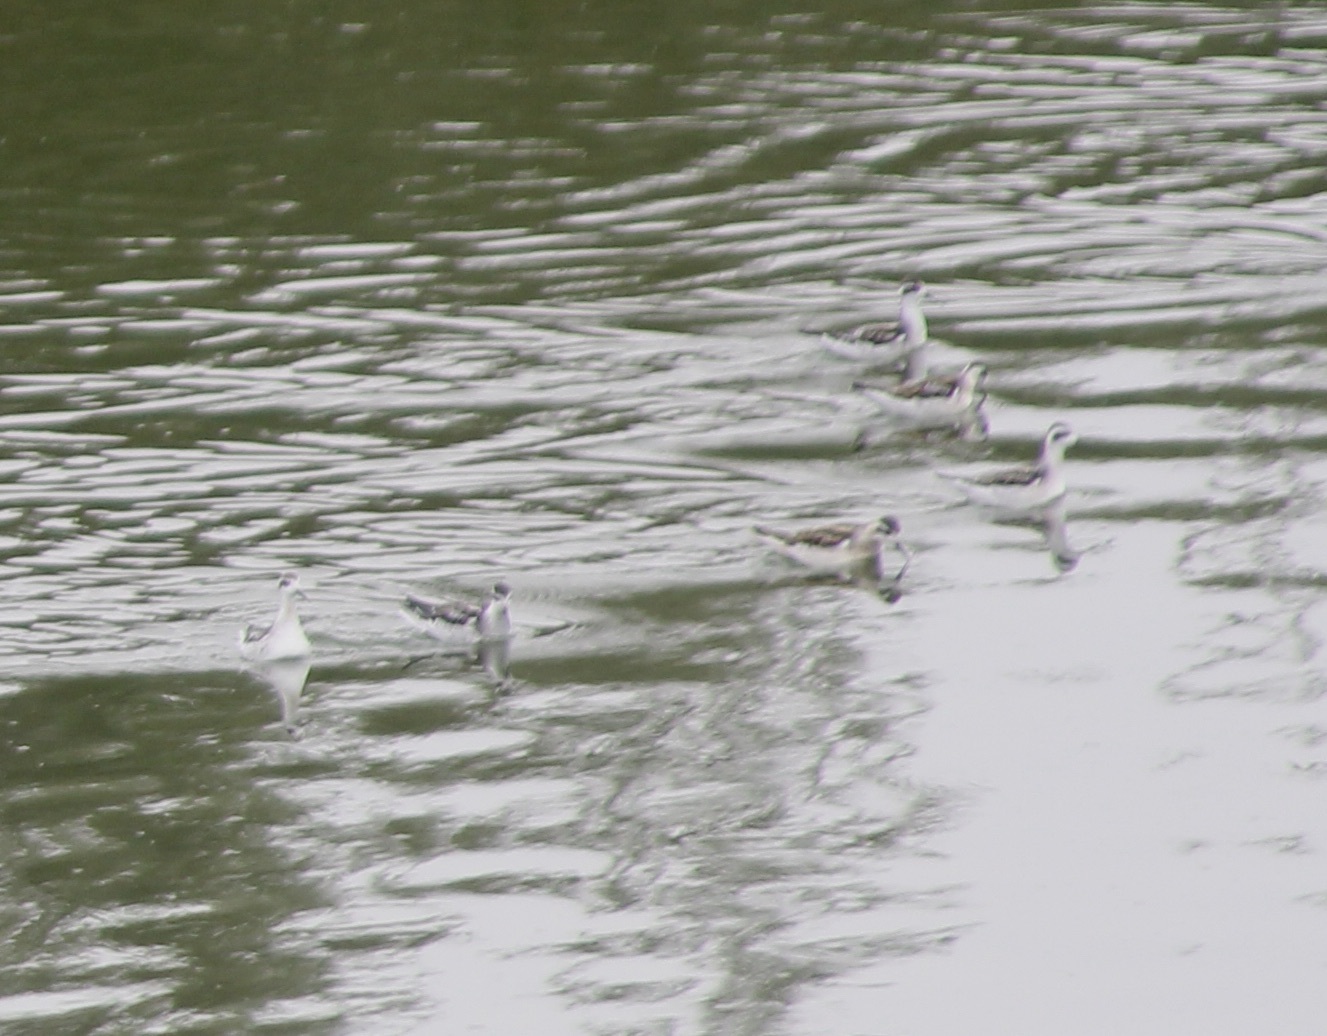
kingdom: Animalia
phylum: Chordata
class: Aves
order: Charadriiformes
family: Scolopacidae
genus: Phalaropus
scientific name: Phalaropus lobatus
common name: Red-necked phalarope
